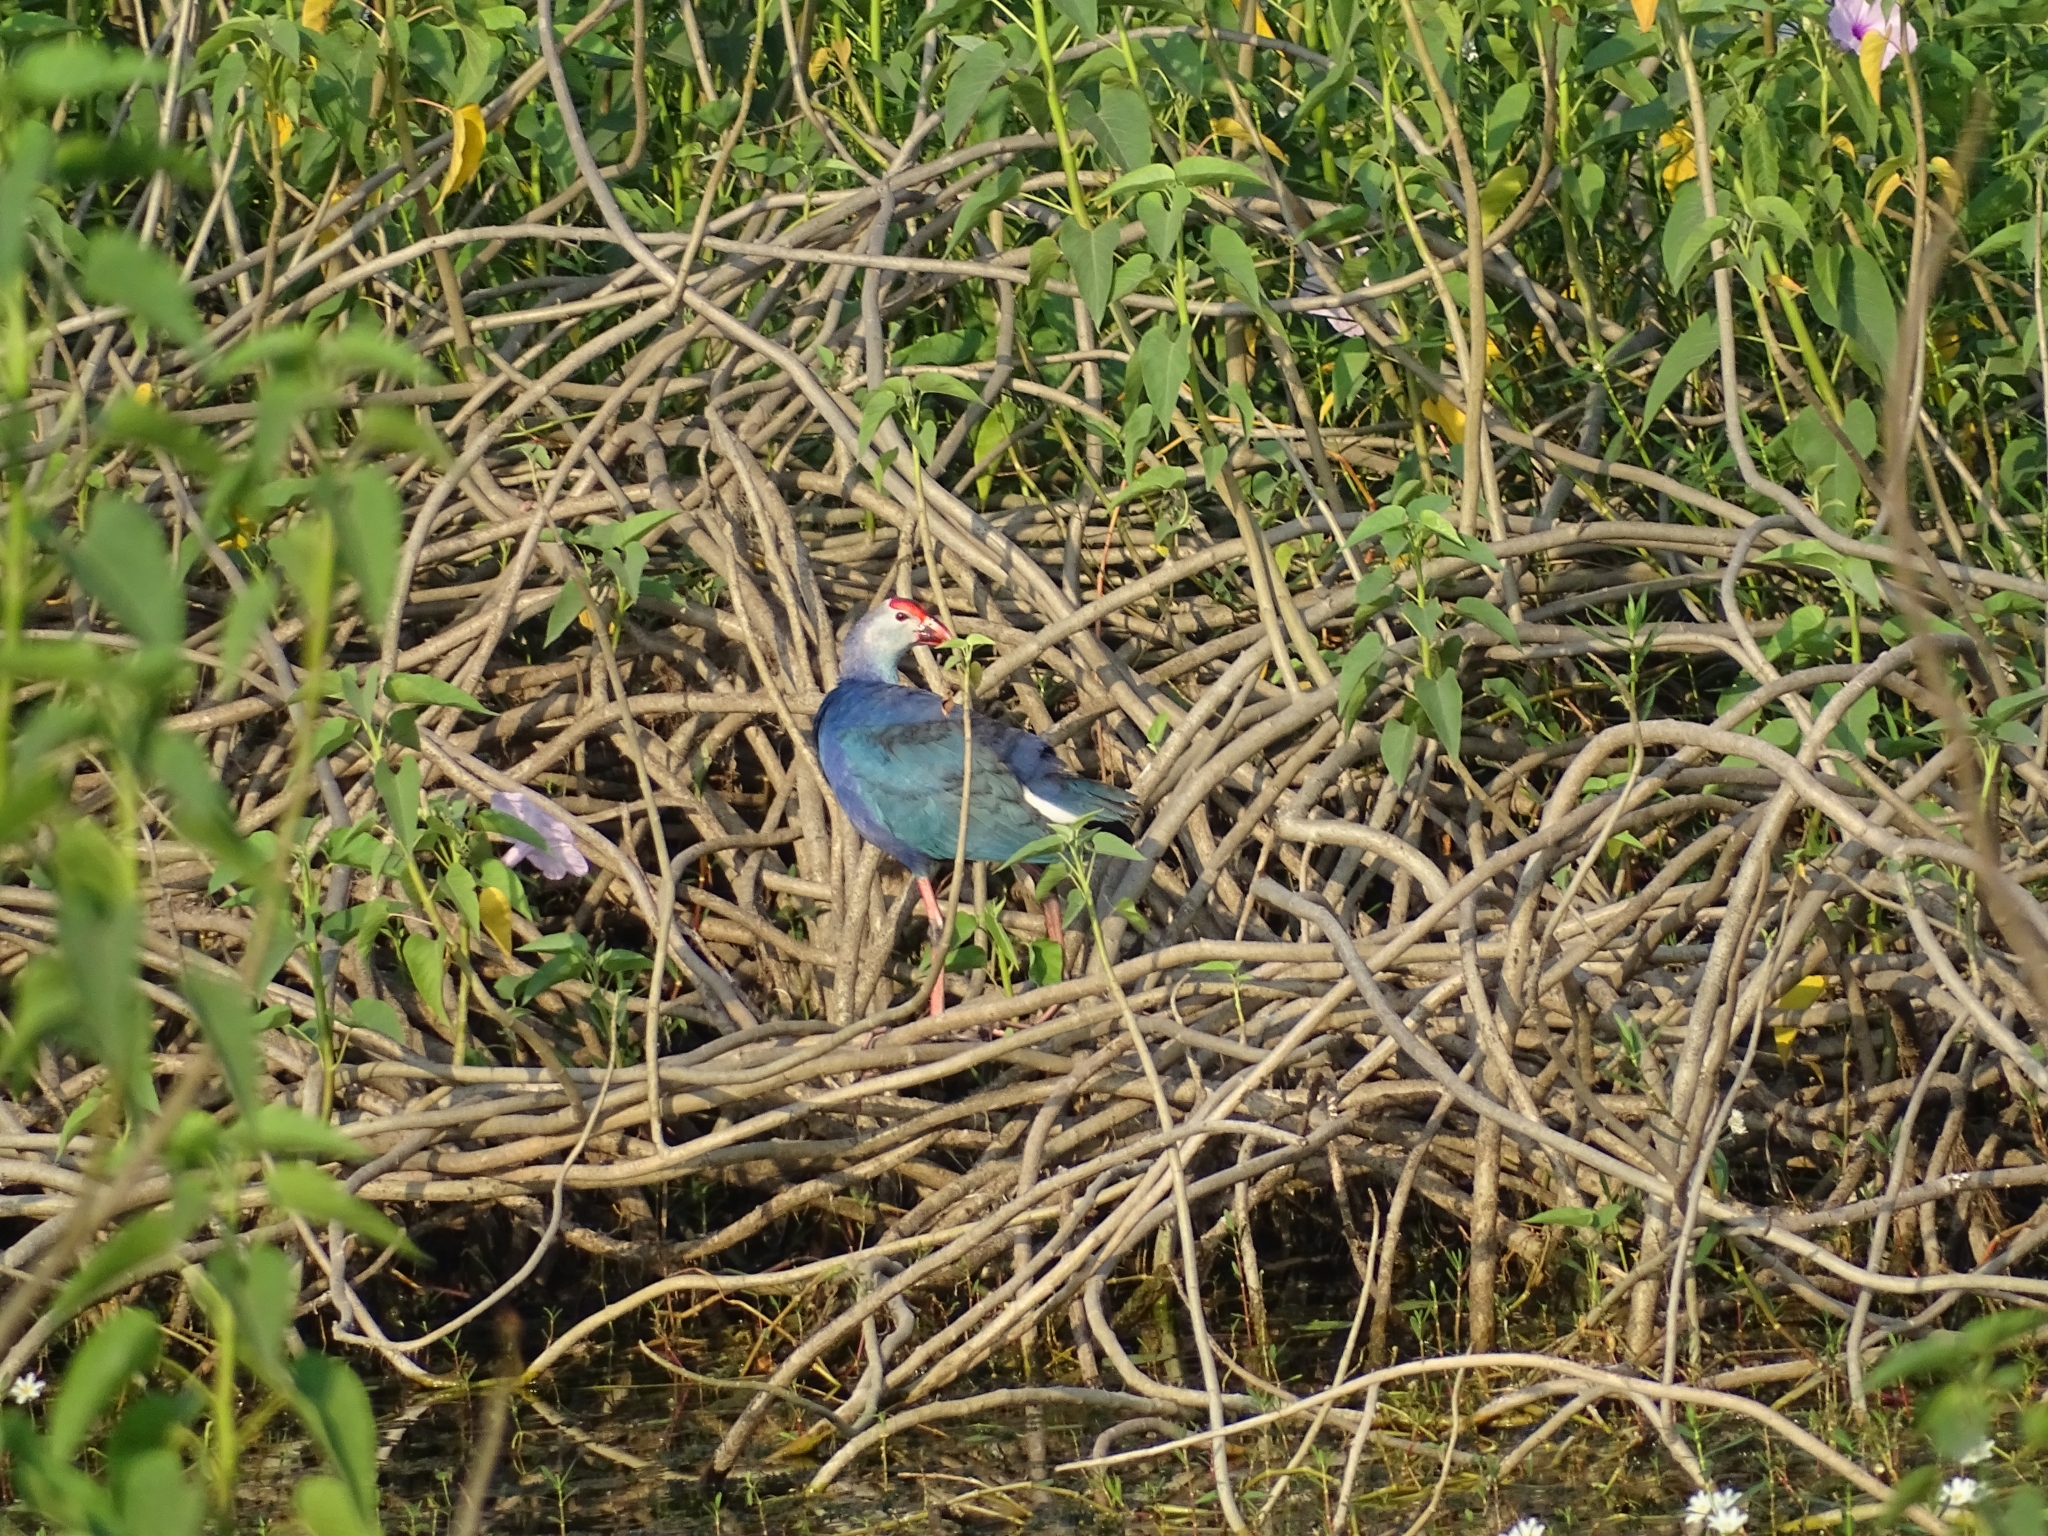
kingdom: Animalia
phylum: Chordata
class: Aves
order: Gruiformes
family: Rallidae
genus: Porphyrio
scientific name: Porphyrio porphyrio
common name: Purple swamphen
